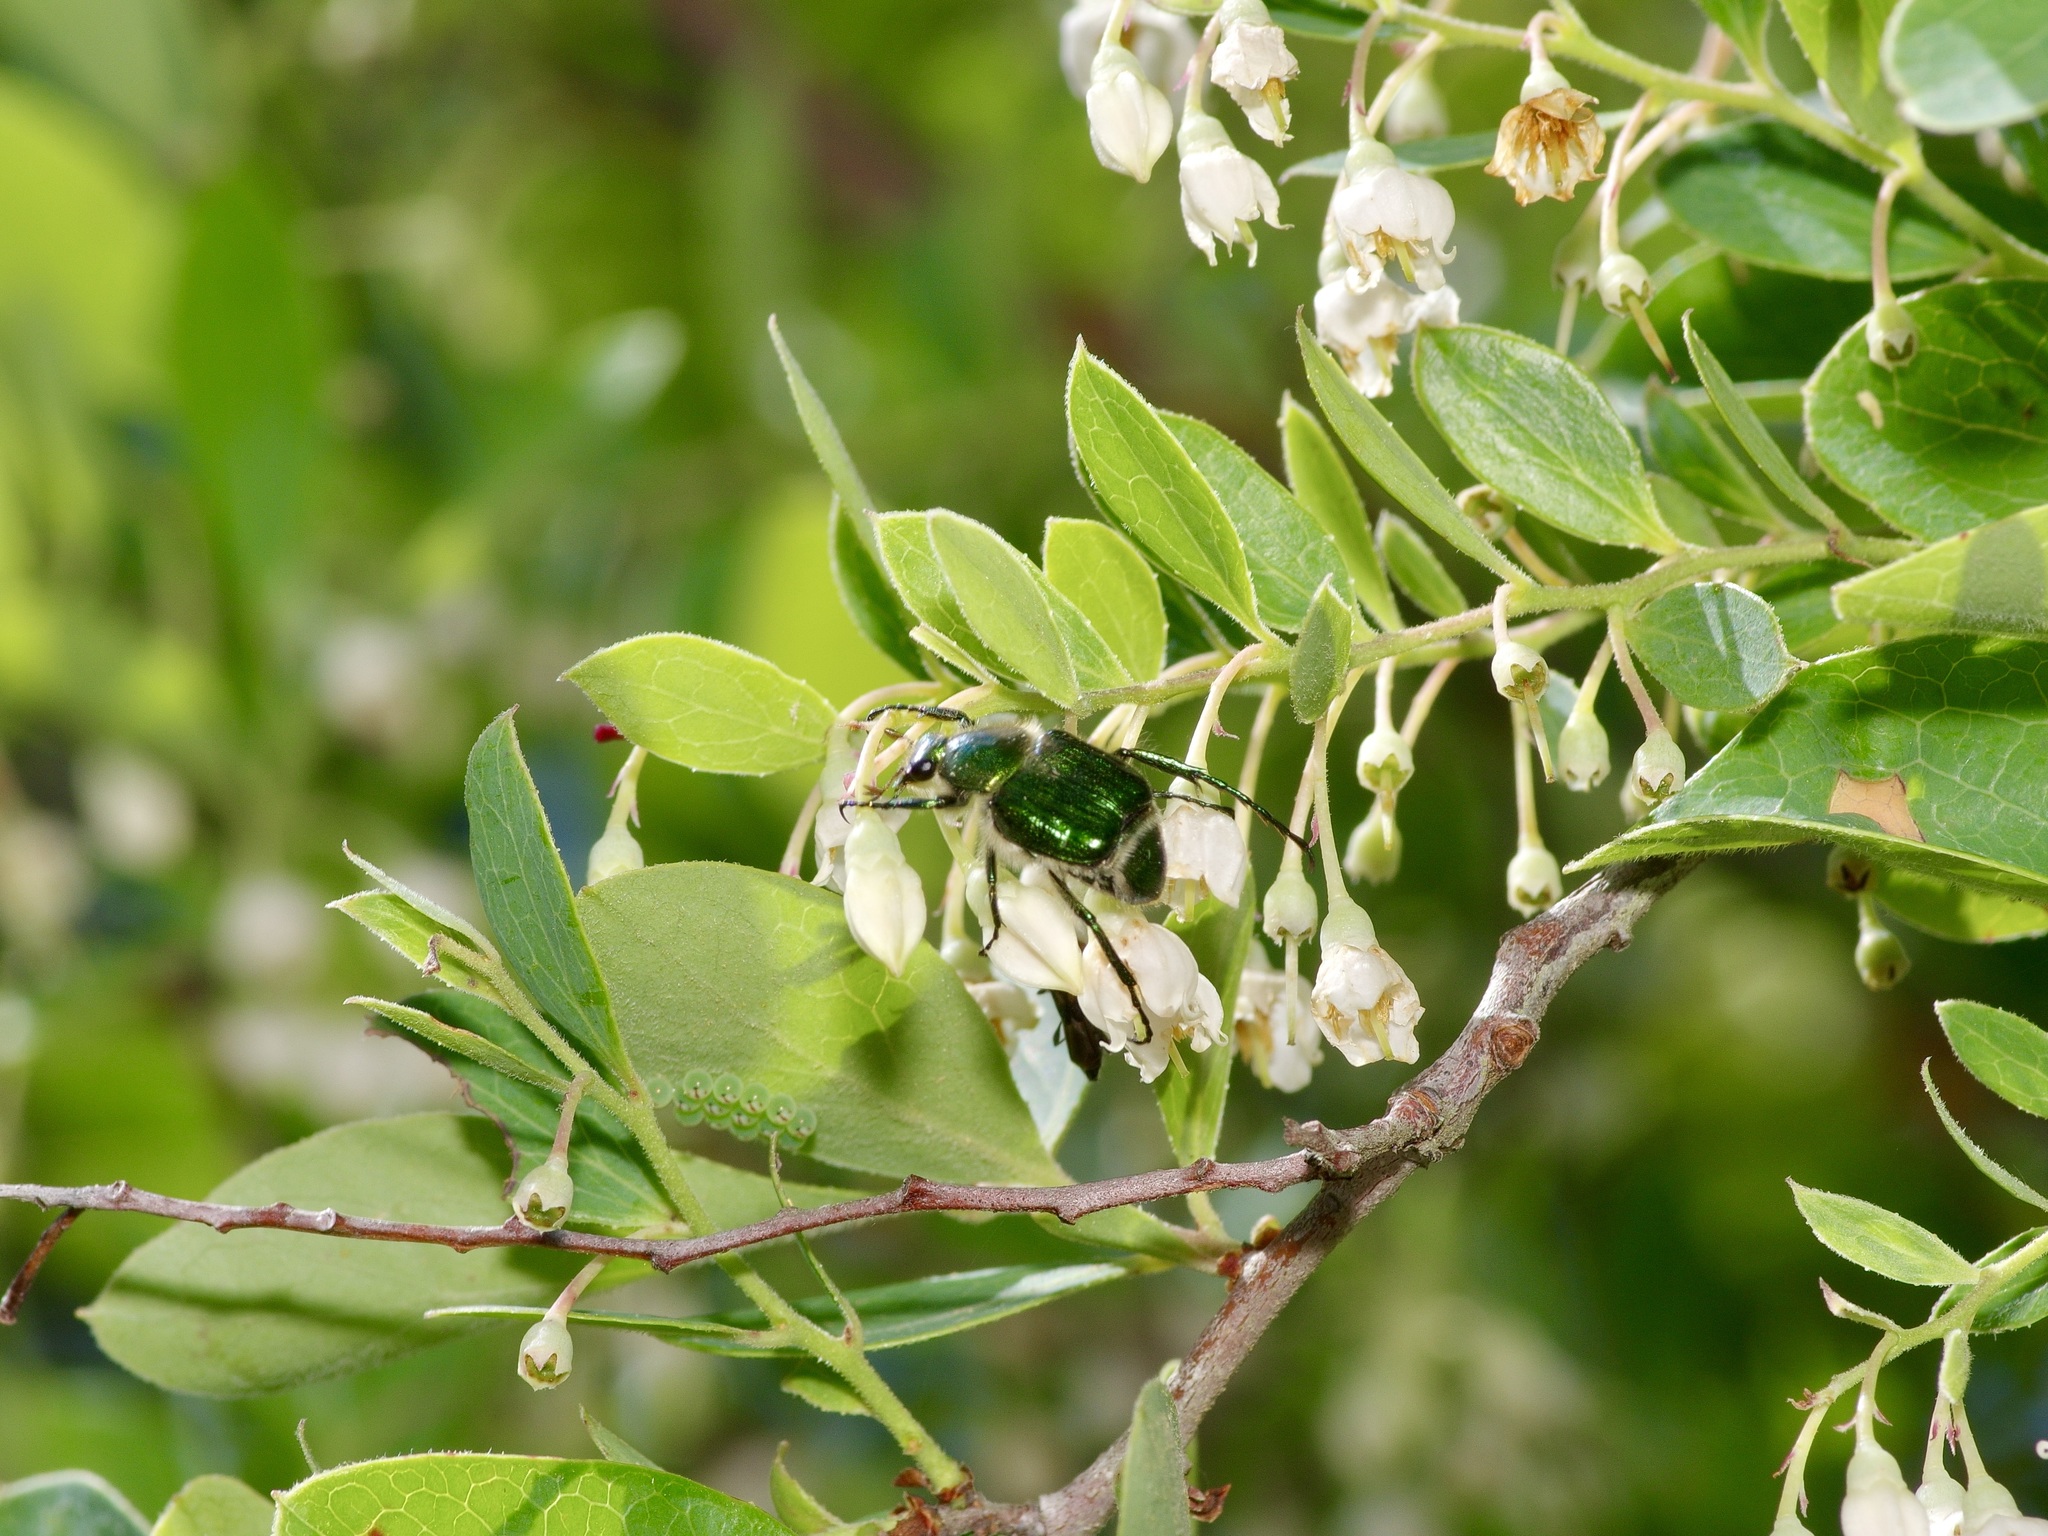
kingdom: Animalia
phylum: Arthropoda
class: Insecta
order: Coleoptera
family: Scarabaeidae
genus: Trichiotinus
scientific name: Trichiotinus lunulatus
